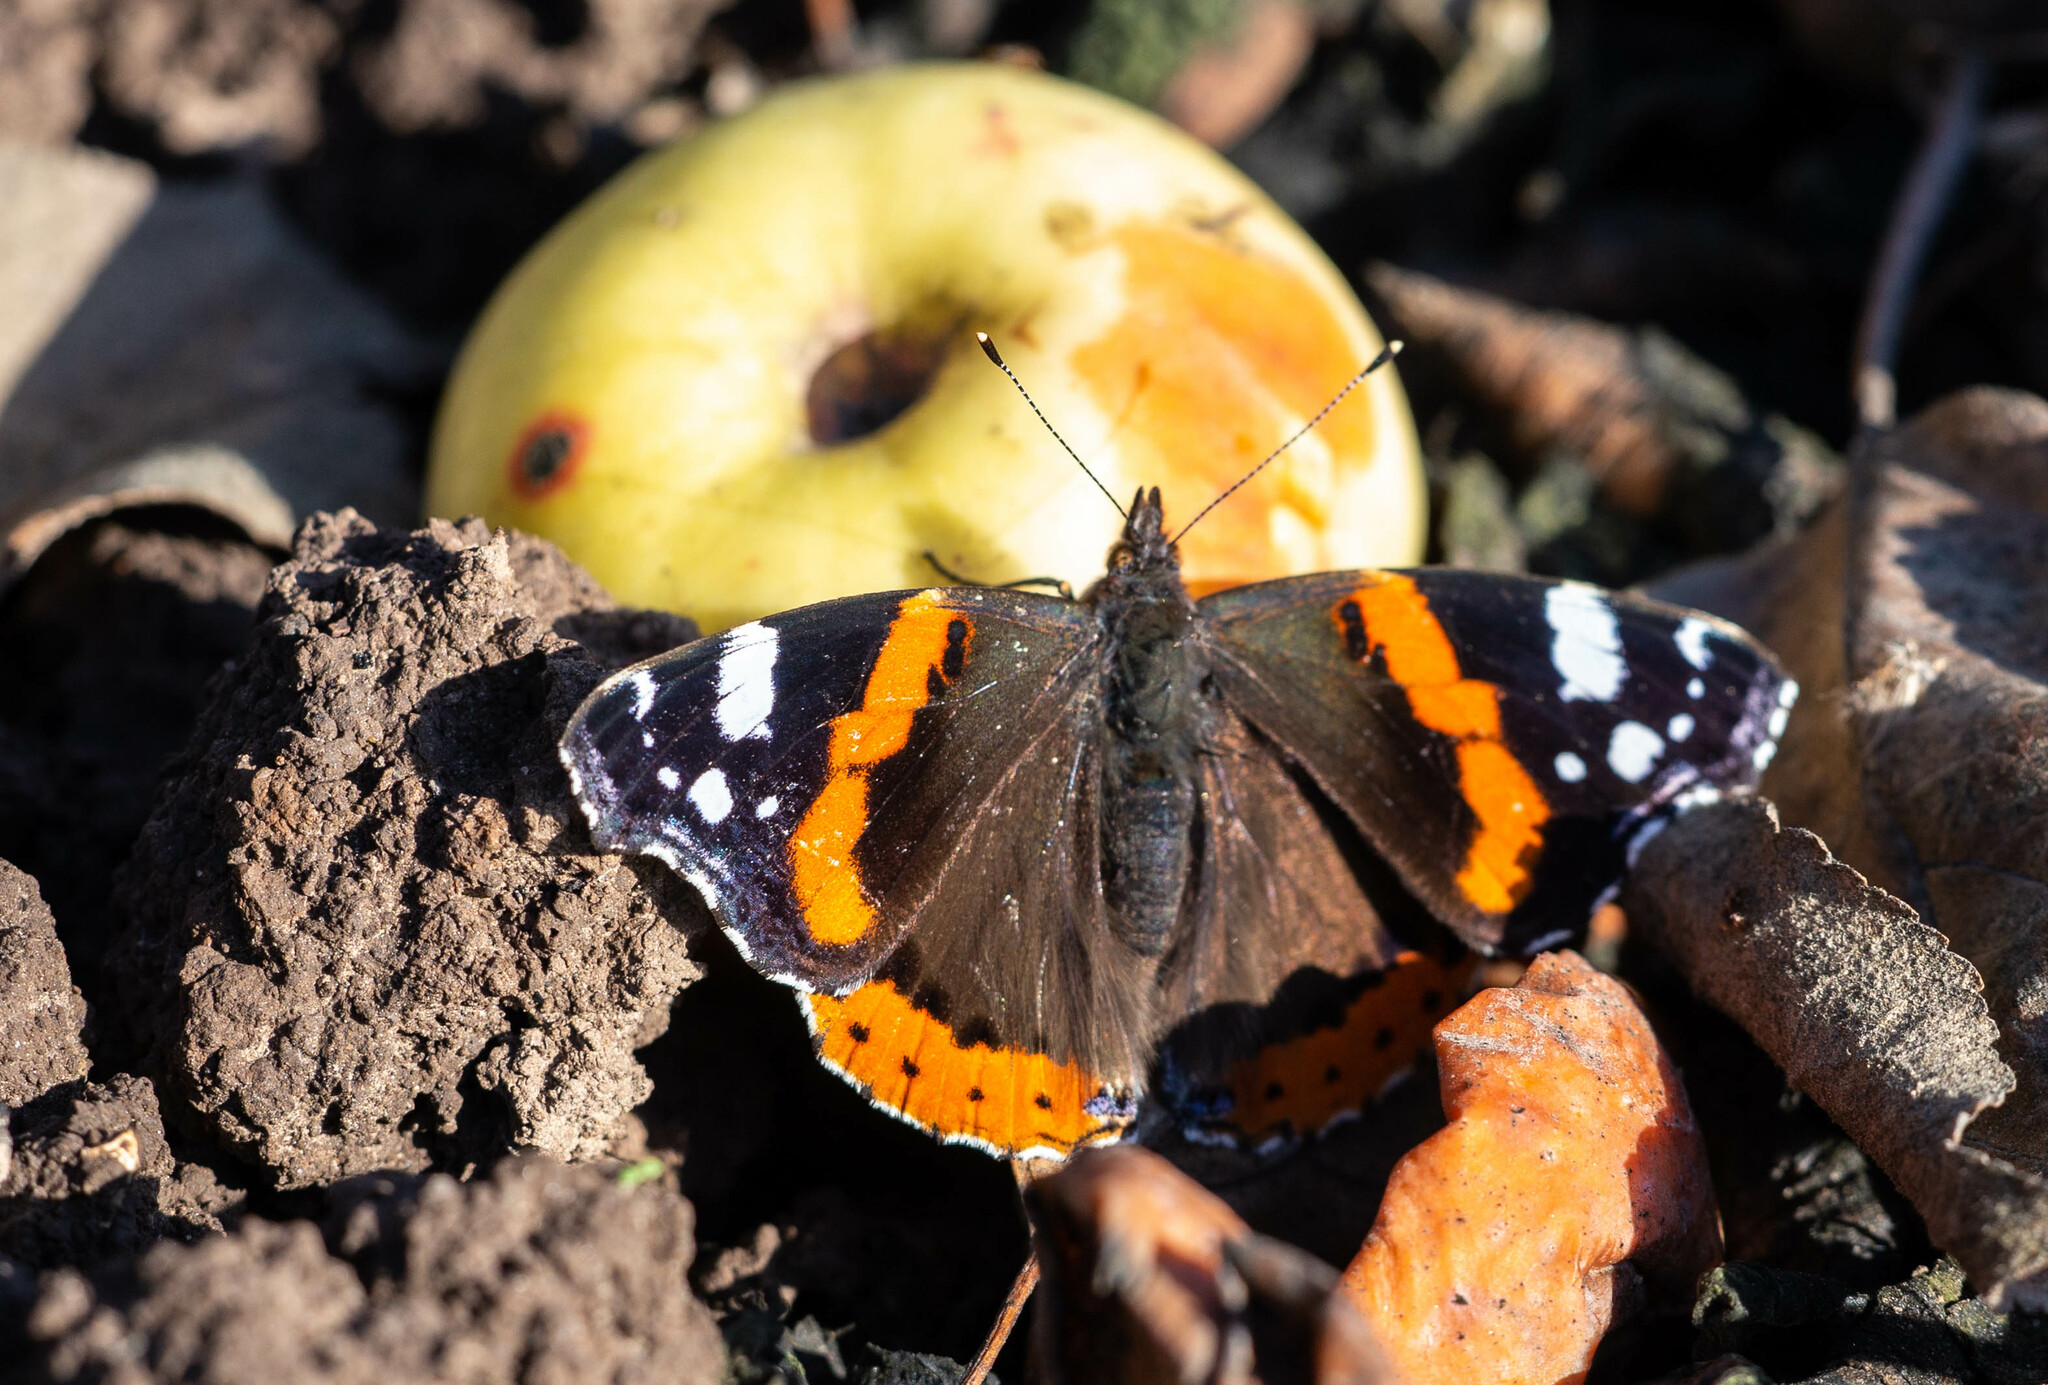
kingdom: Animalia
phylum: Arthropoda
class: Insecta
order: Lepidoptera
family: Nymphalidae
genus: Vanessa
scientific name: Vanessa atalanta
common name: Red admiral
